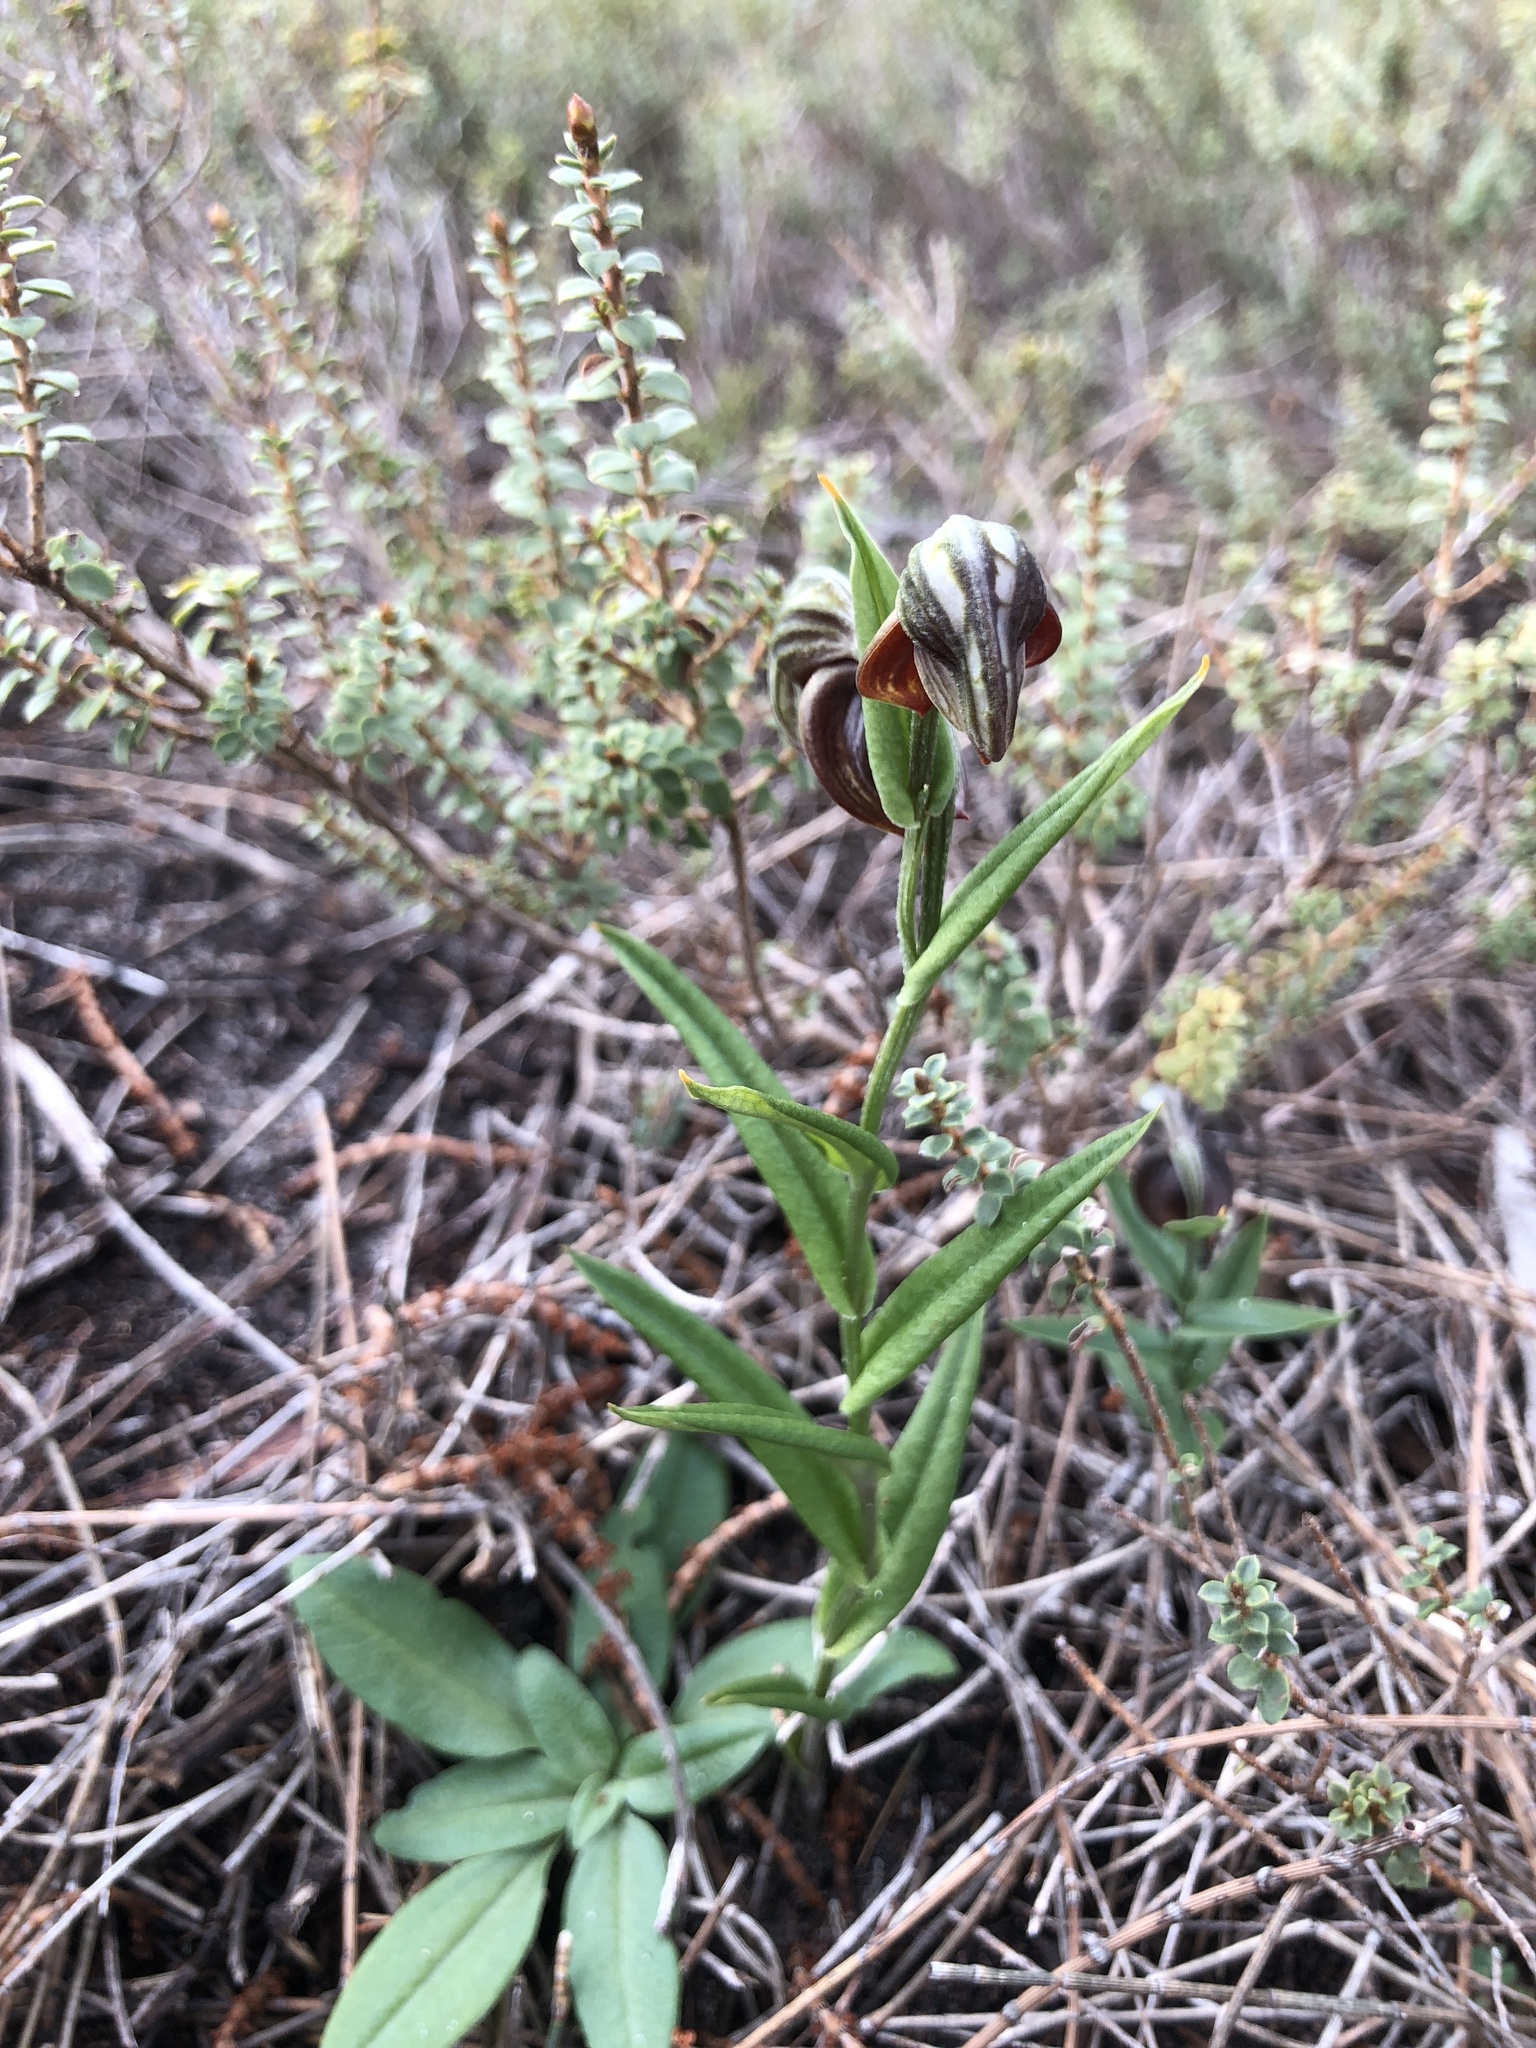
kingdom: Plantae
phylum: Tracheophyta
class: Liliopsida
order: Asparagales
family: Orchidaceae
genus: Pterostylis
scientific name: Pterostylis sanguinea
